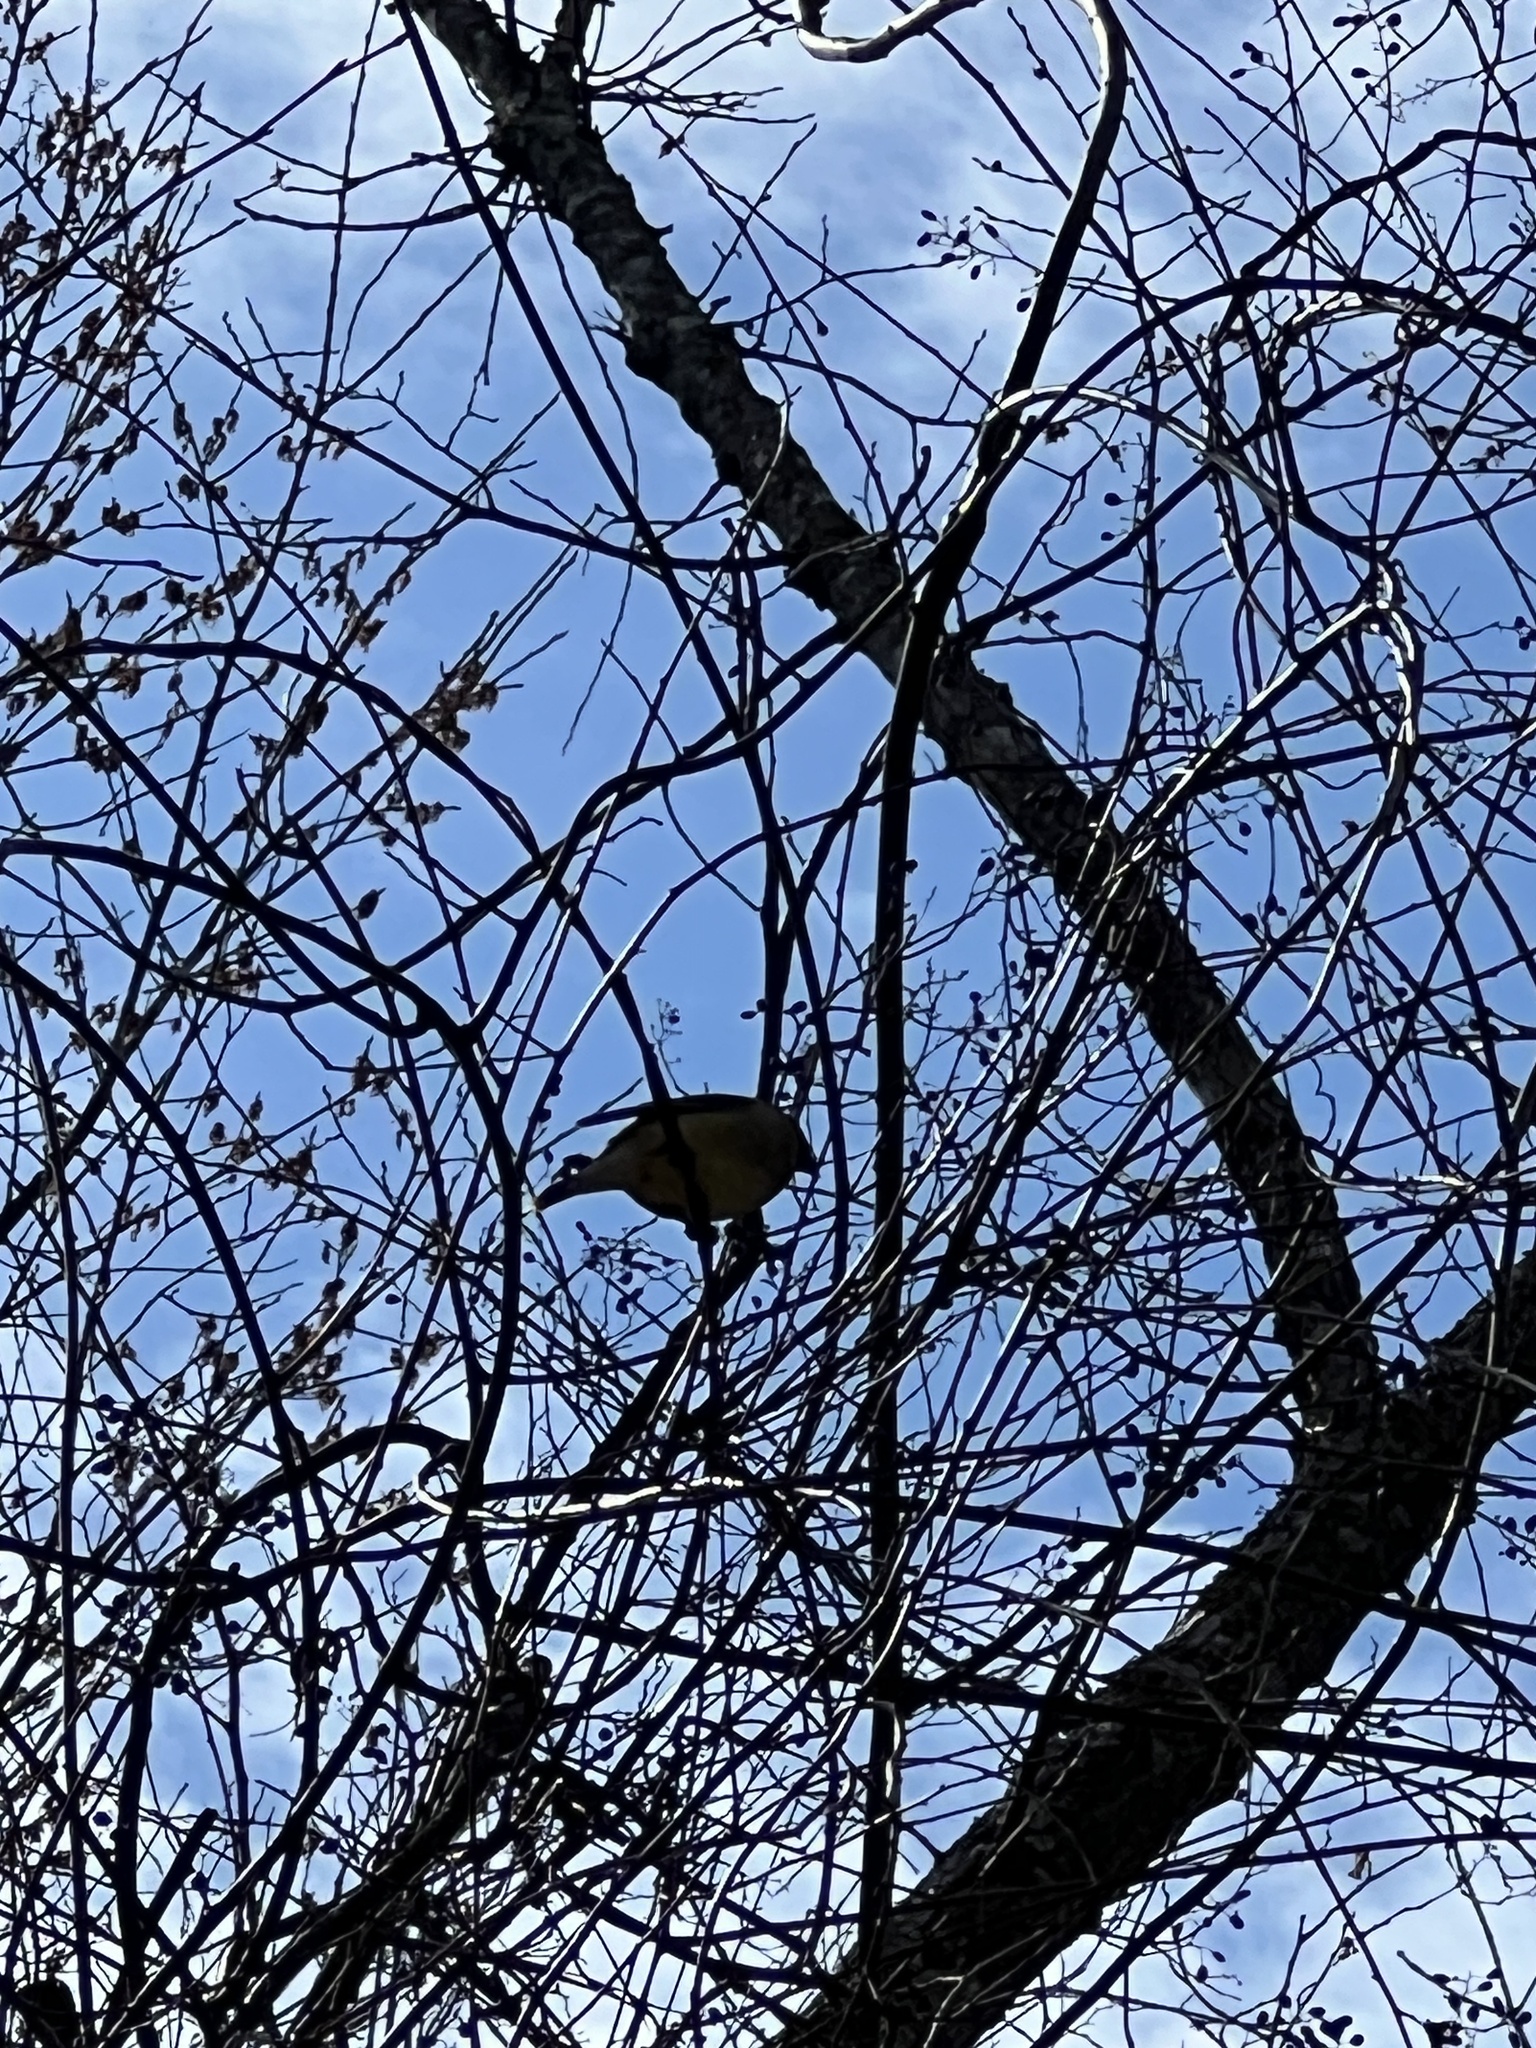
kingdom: Animalia
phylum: Chordata
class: Aves
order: Passeriformes
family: Bombycillidae
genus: Bombycilla
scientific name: Bombycilla cedrorum
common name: Cedar waxwing
